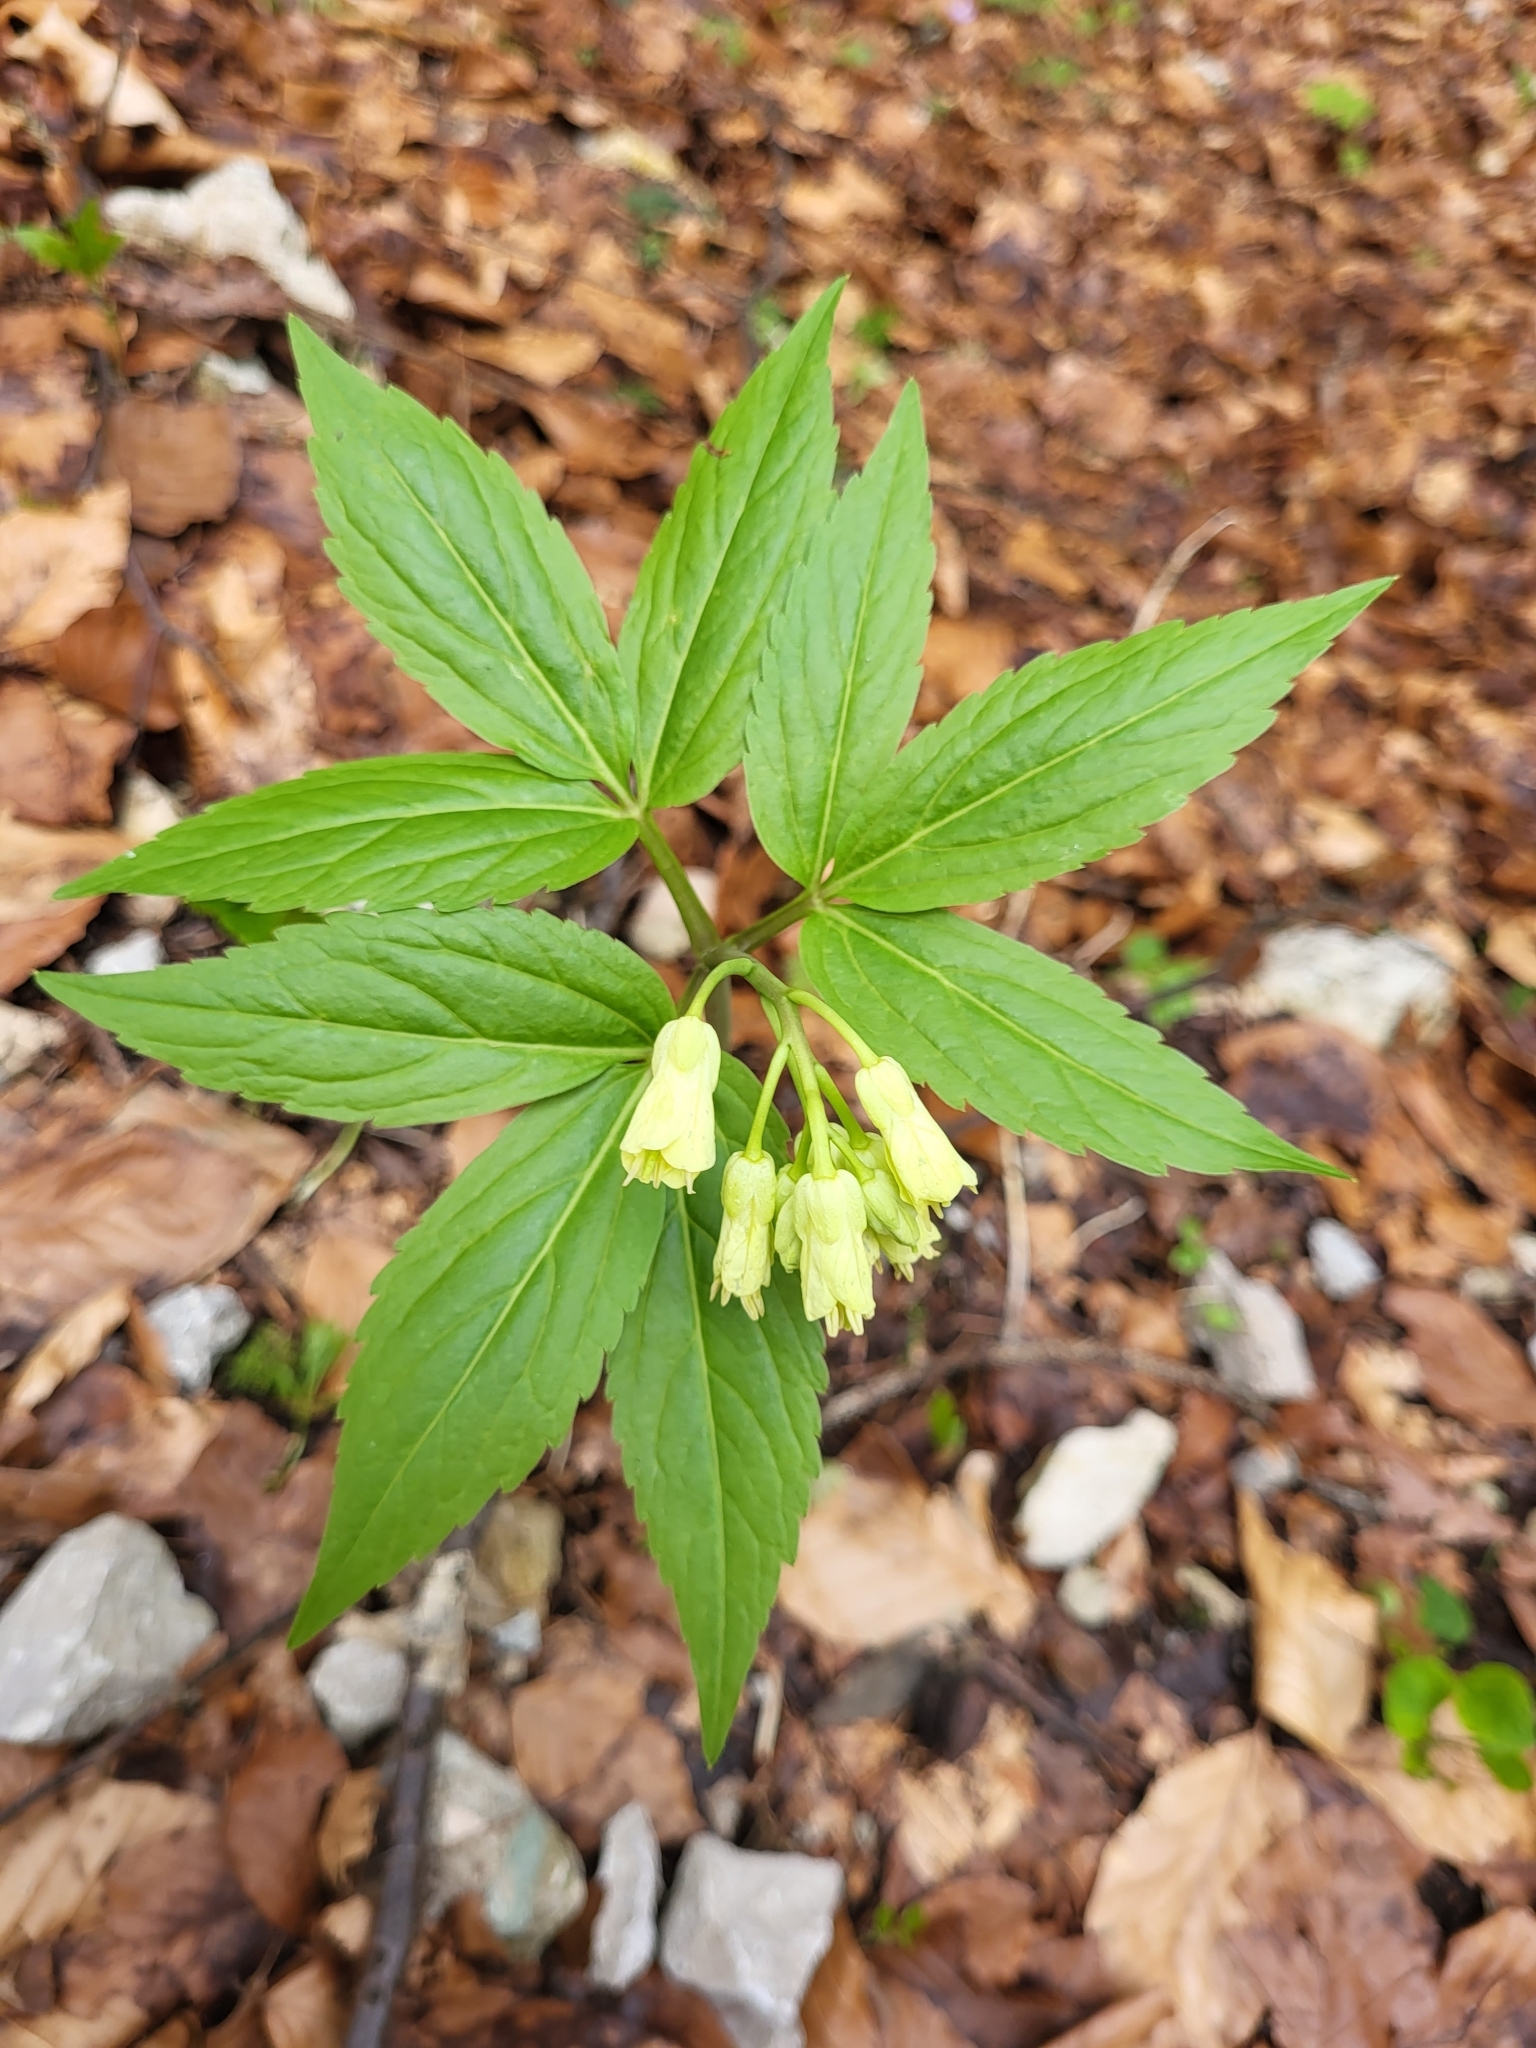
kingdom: Plantae
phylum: Tracheophyta
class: Magnoliopsida
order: Brassicales
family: Brassicaceae
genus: Cardamine
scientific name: Cardamine enneaphyllos
